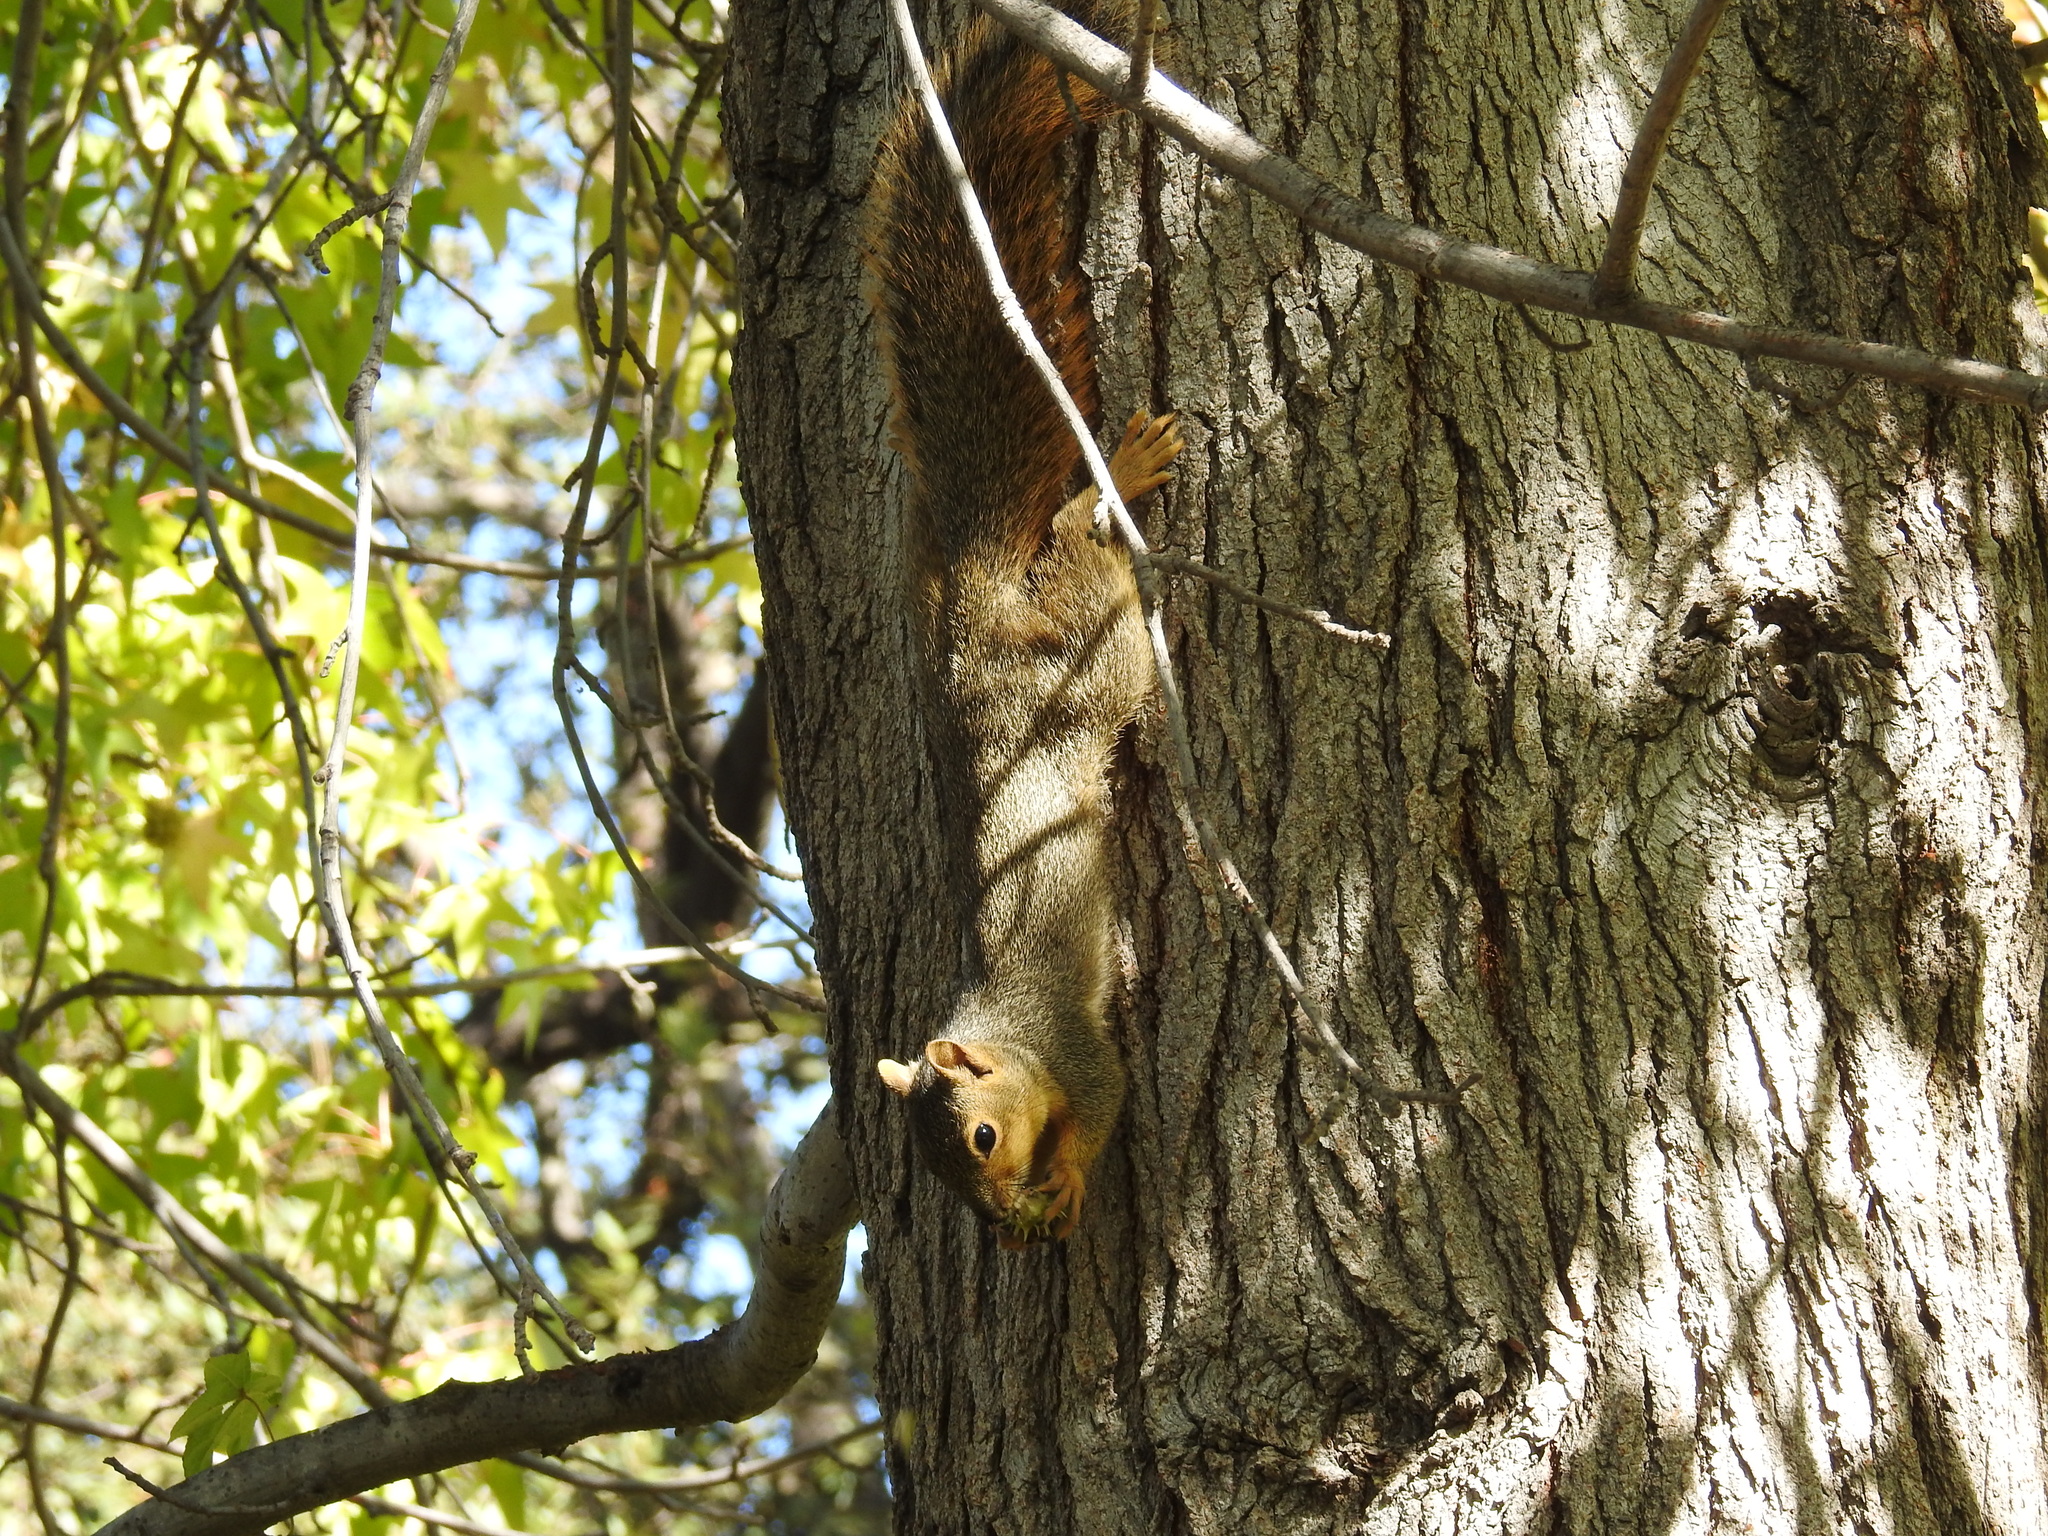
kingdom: Animalia
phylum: Chordata
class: Mammalia
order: Rodentia
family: Sciuridae
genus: Sciurus
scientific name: Sciurus niger
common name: Fox squirrel
